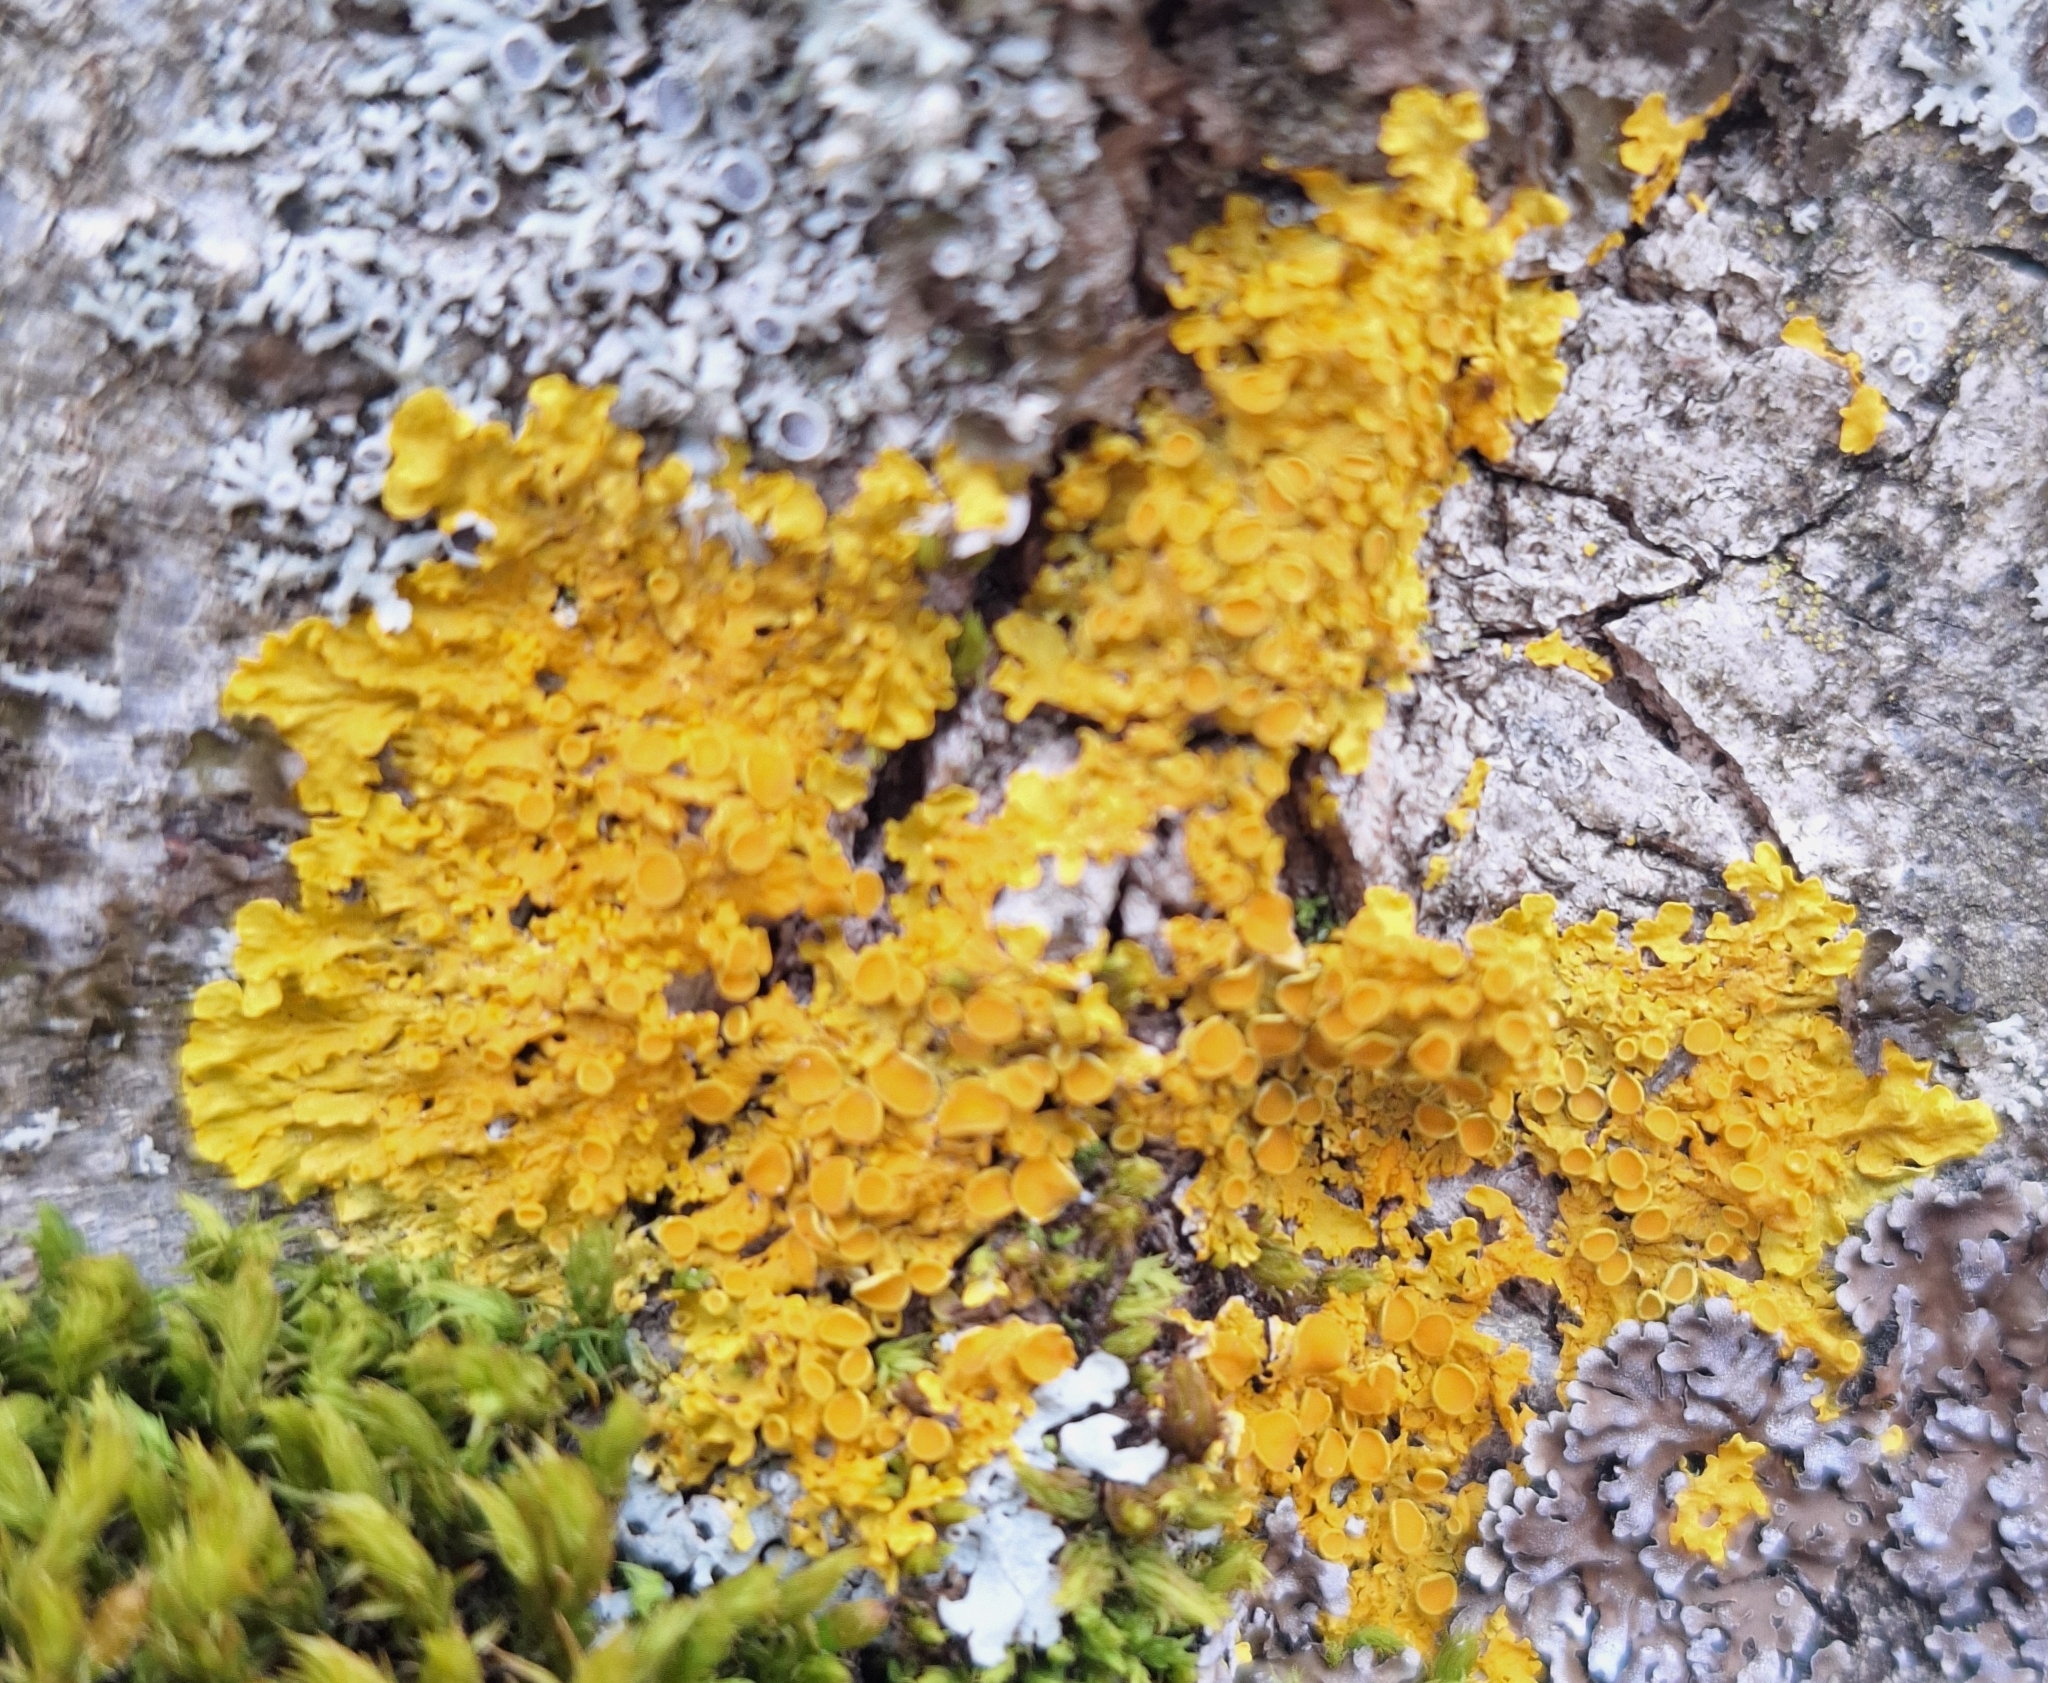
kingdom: Fungi
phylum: Ascomycota
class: Lecanoromycetes
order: Teloschistales
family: Teloschistaceae
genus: Xanthoria
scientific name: Xanthoria parietina
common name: Common orange lichen
